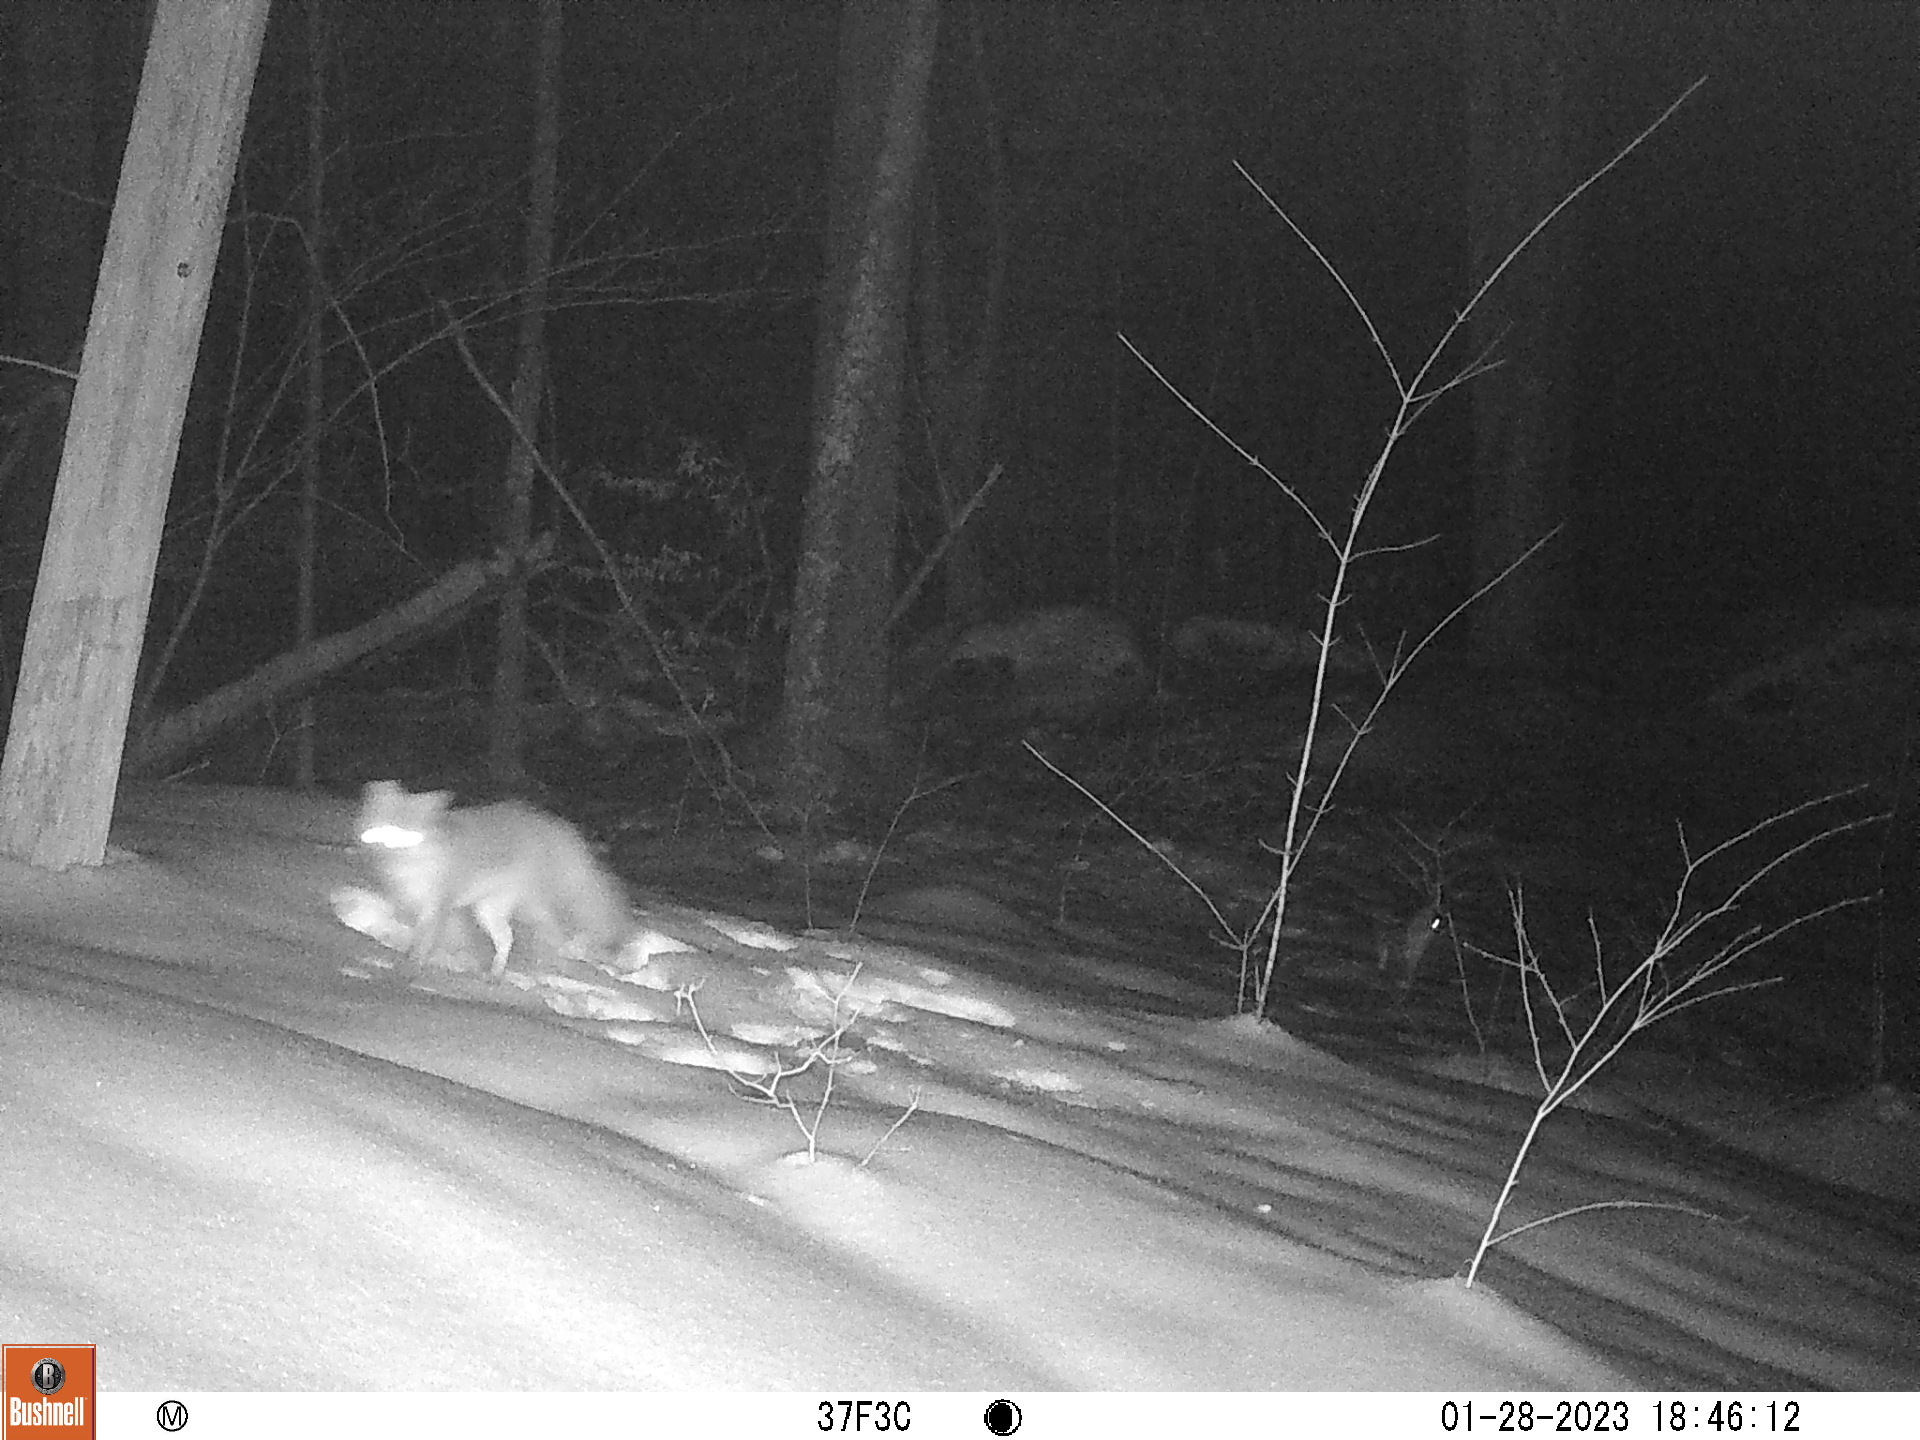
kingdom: Animalia
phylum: Chordata
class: Mammalia
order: Carnivora
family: Canidae
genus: Urocyon
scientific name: Urocyon cinereoargenteus
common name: Gray fox
